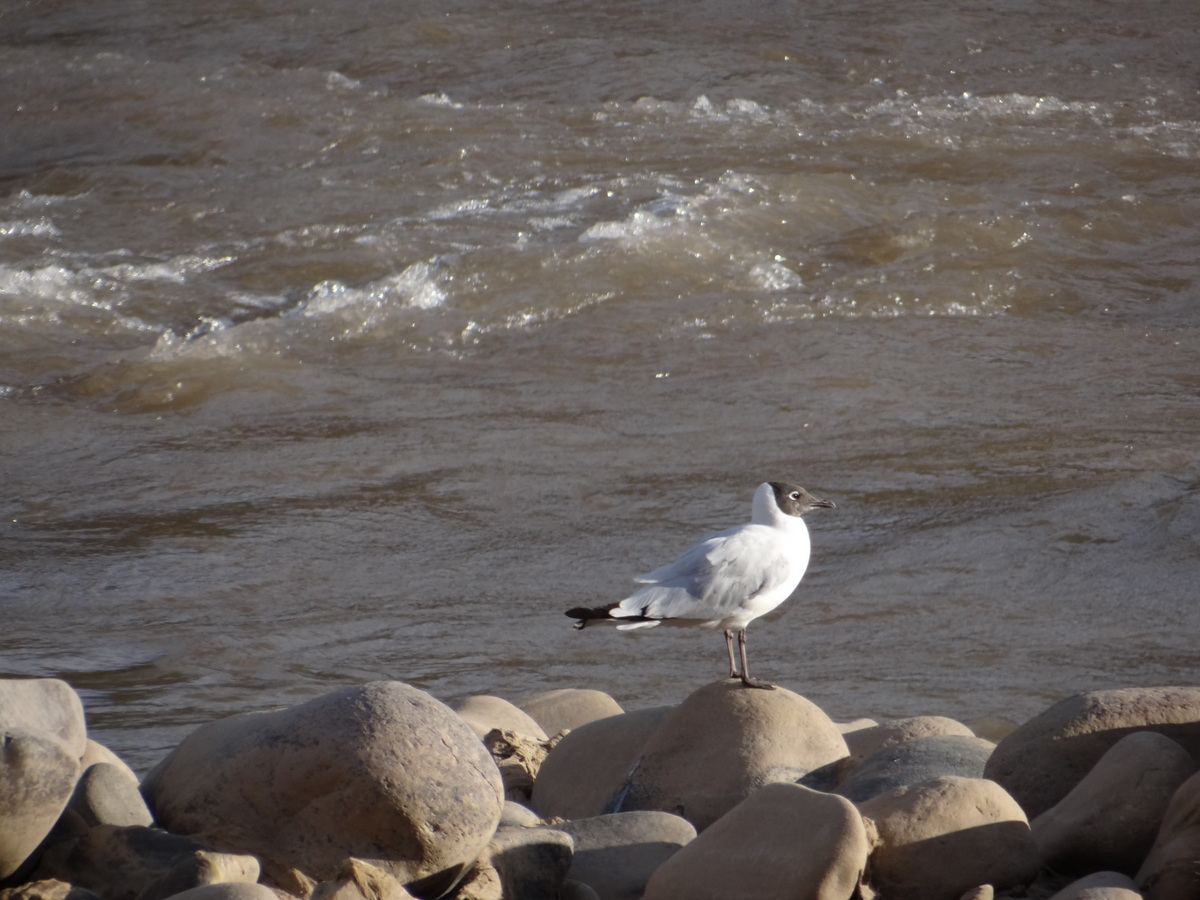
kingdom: Animalia
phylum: Chordata
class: Aves
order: Charadriiformes
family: Laridae
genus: Chroicocephalus
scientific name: Chroicocephalus serranus
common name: Andean gull
